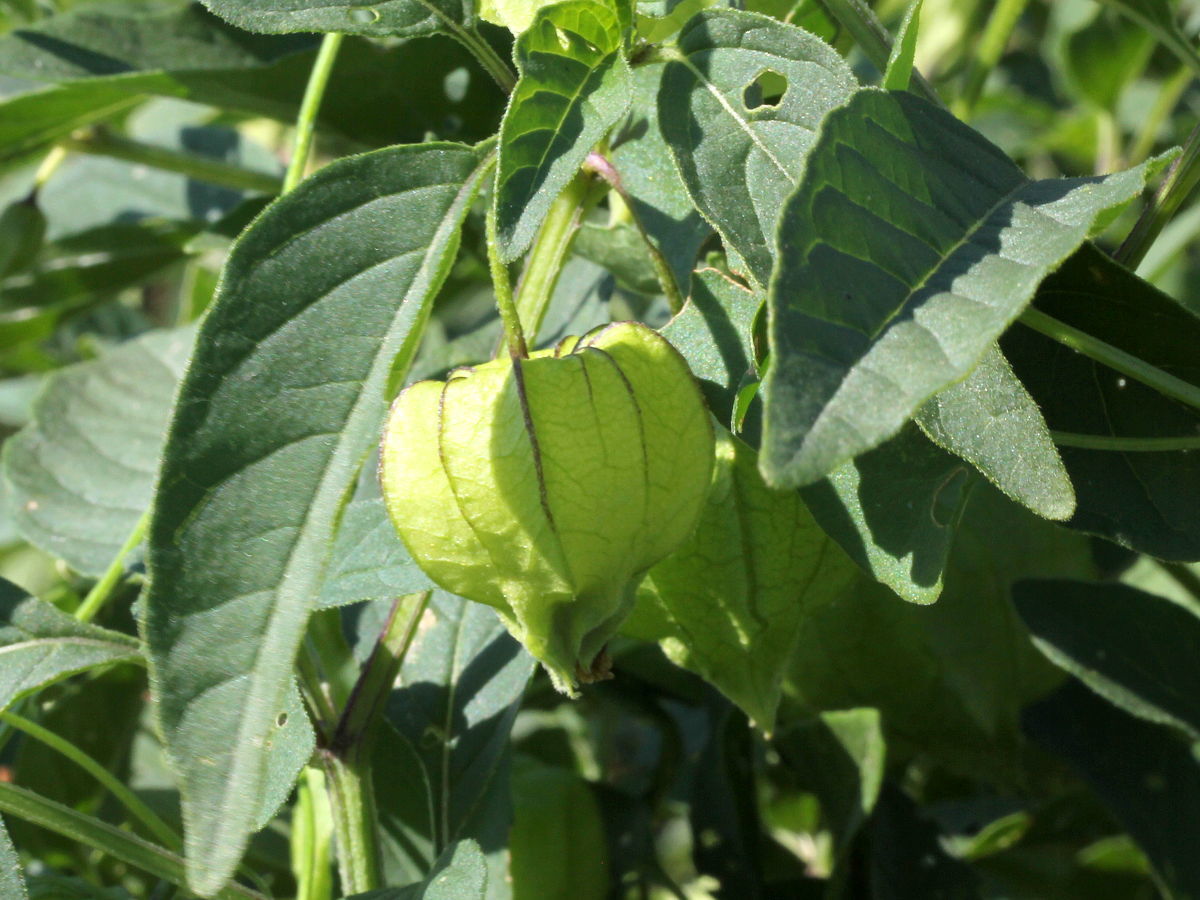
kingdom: Plantae
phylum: Tracheophyta
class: Magnoliopsida
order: Solanales
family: Solanaceae
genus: Physalis
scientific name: Physalis longifolia
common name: Common ground-cherry
